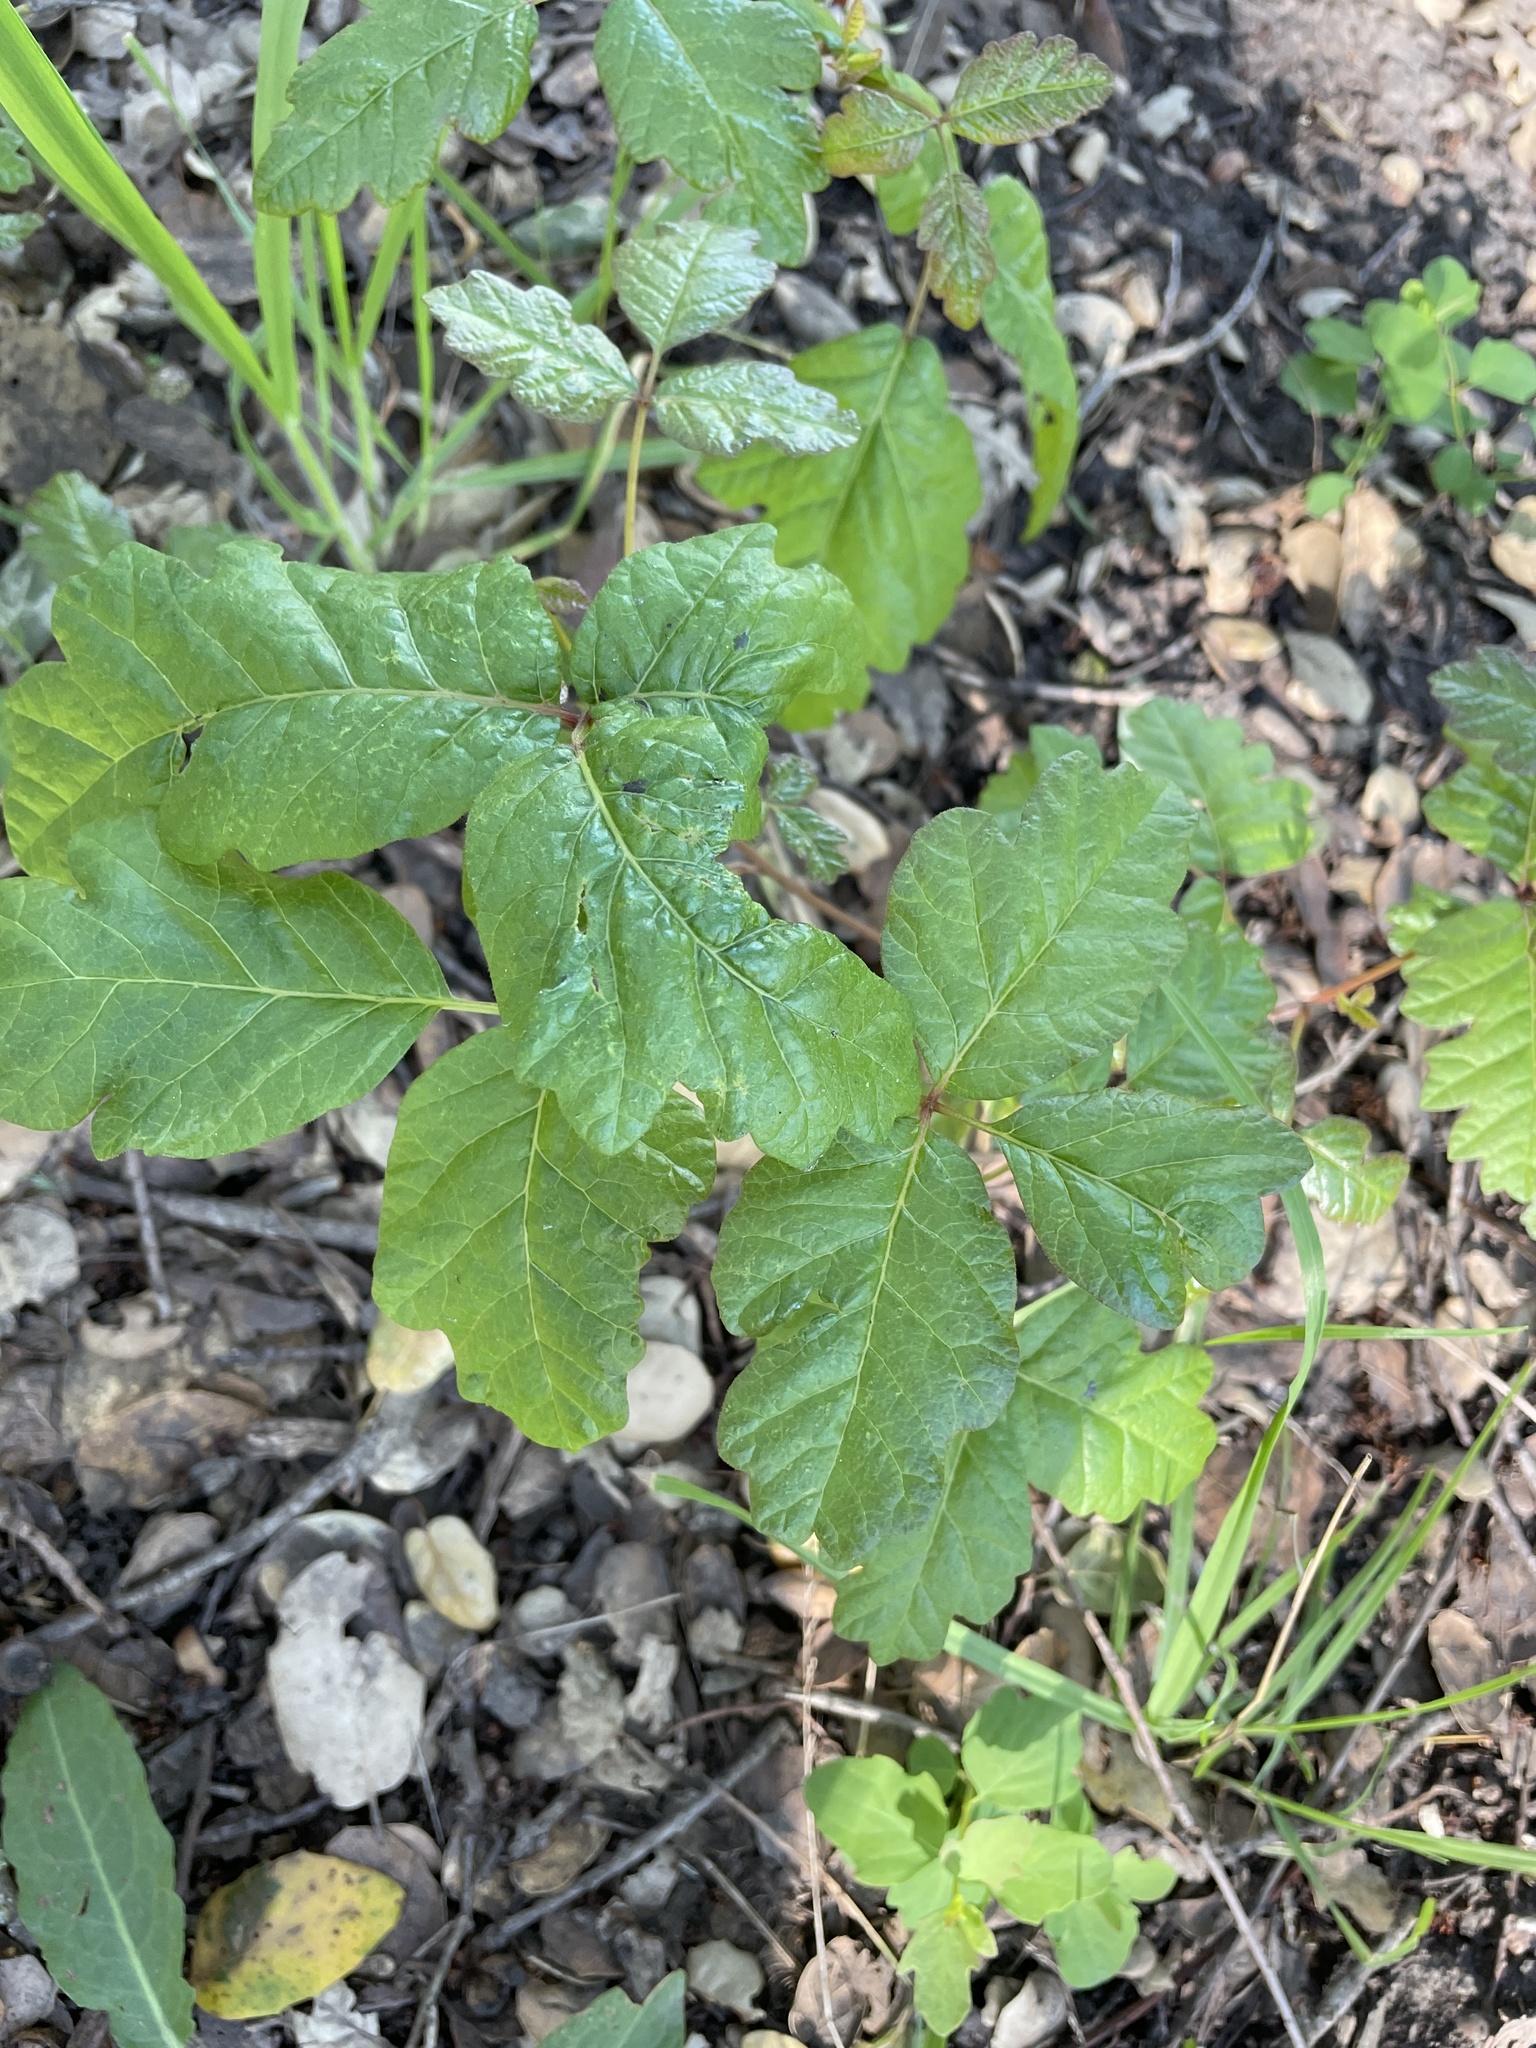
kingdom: Plantae
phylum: Tracheophyta
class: Magnoliopsida
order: Sapindales
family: Anacardiaceae
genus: Toxicodendron
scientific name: Toxicodendron diversilobum
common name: Pacific poison-oak
